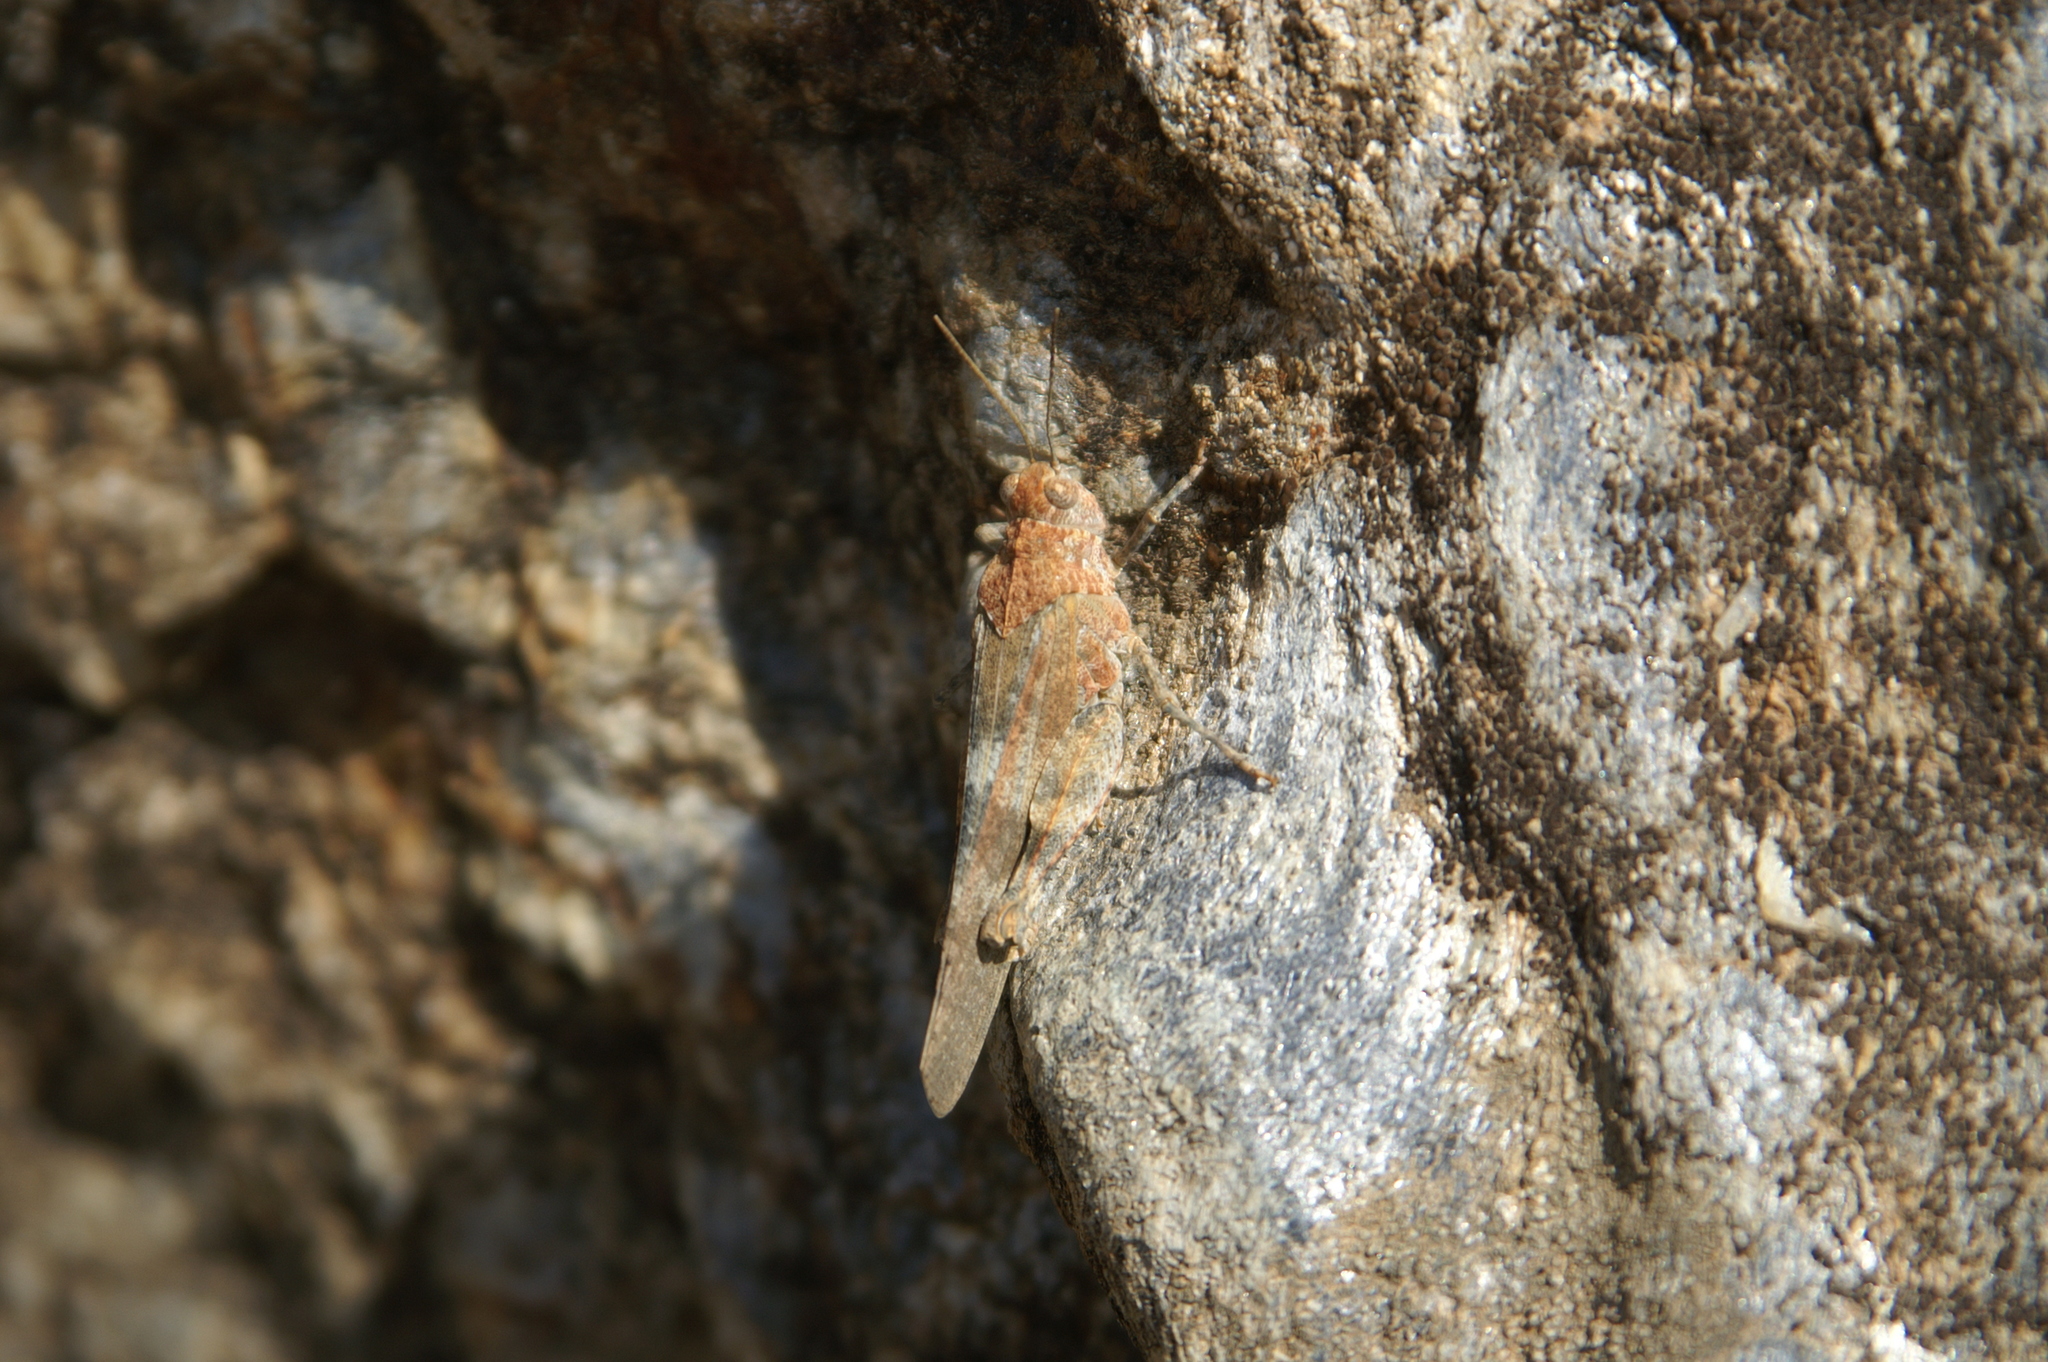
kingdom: Animalia
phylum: Arthropoda
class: Insecta
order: Orthoptera
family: Acrididae
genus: Oedipoda
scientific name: Oedipoda coerulea
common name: Iberian band-winged grasshopper
